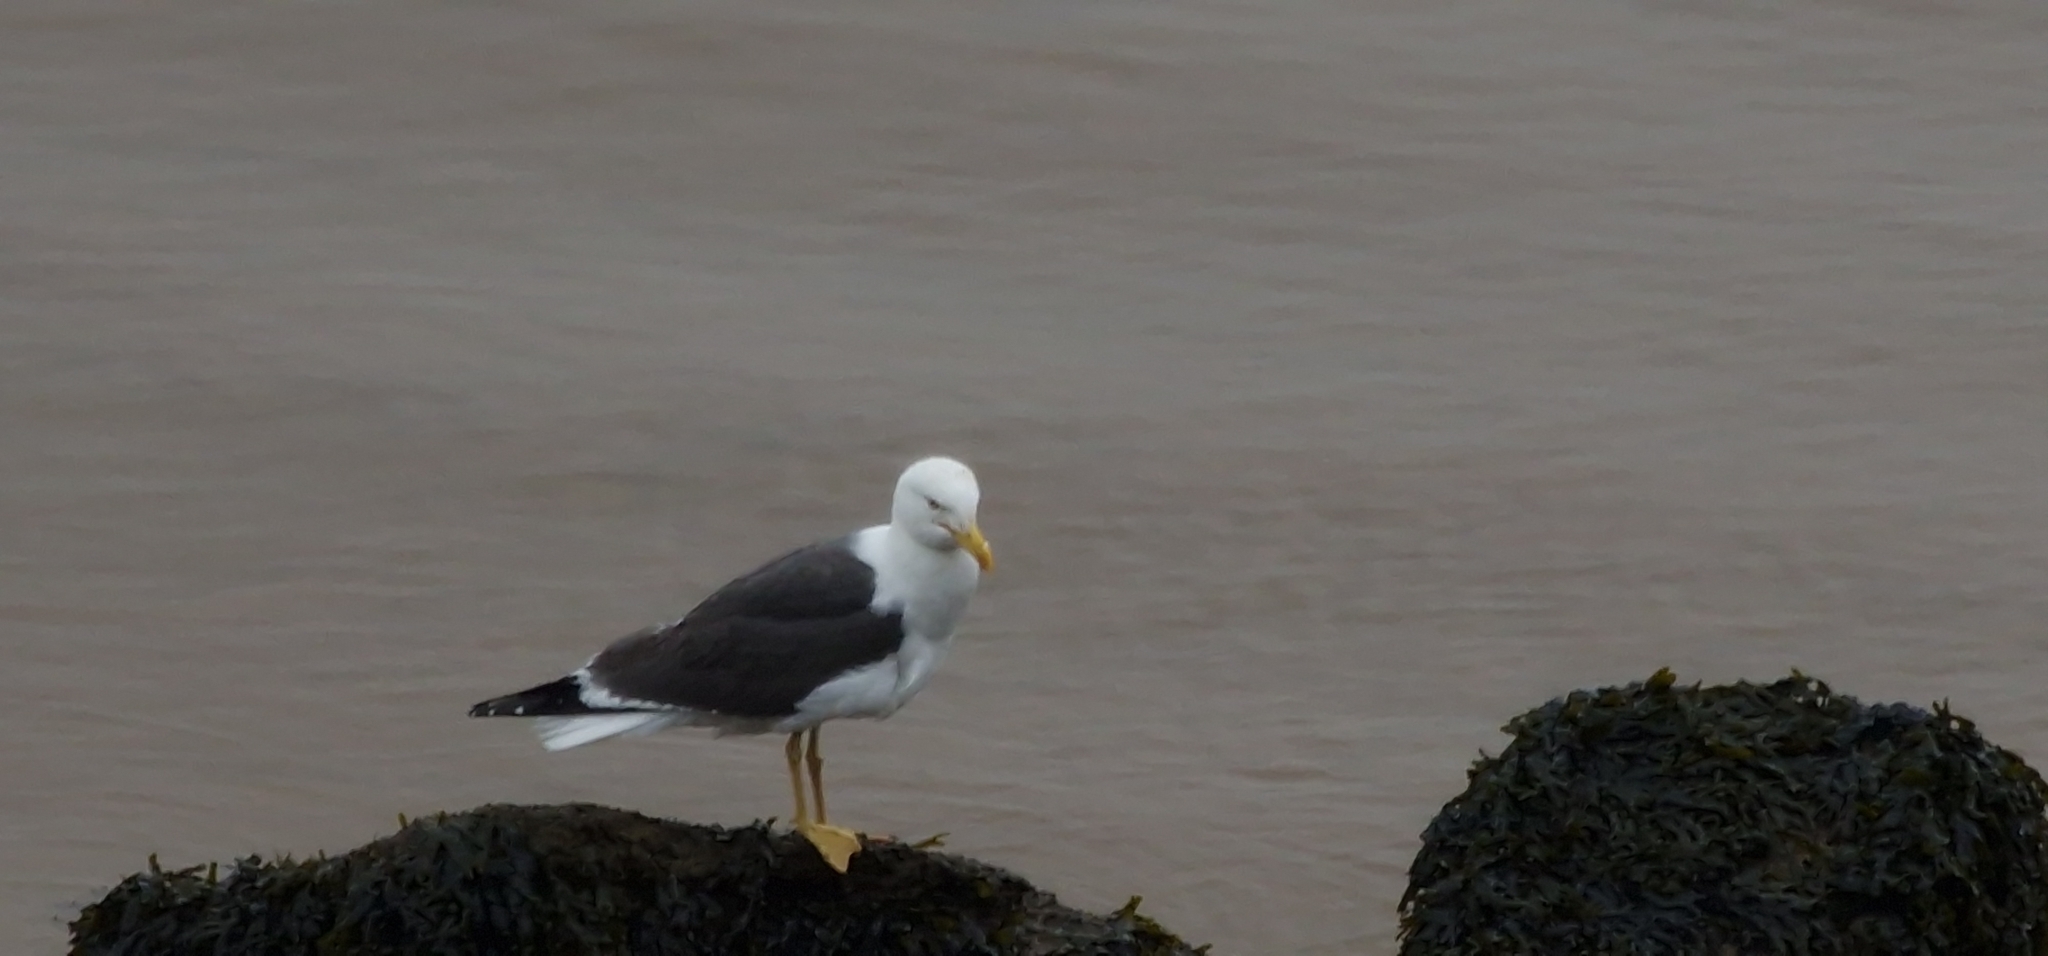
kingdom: Animalia
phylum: Chordata
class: Aves
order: Charadriiformes
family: Laridae
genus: Larus
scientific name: Larus fuscus
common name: Lesser black-backed gull
